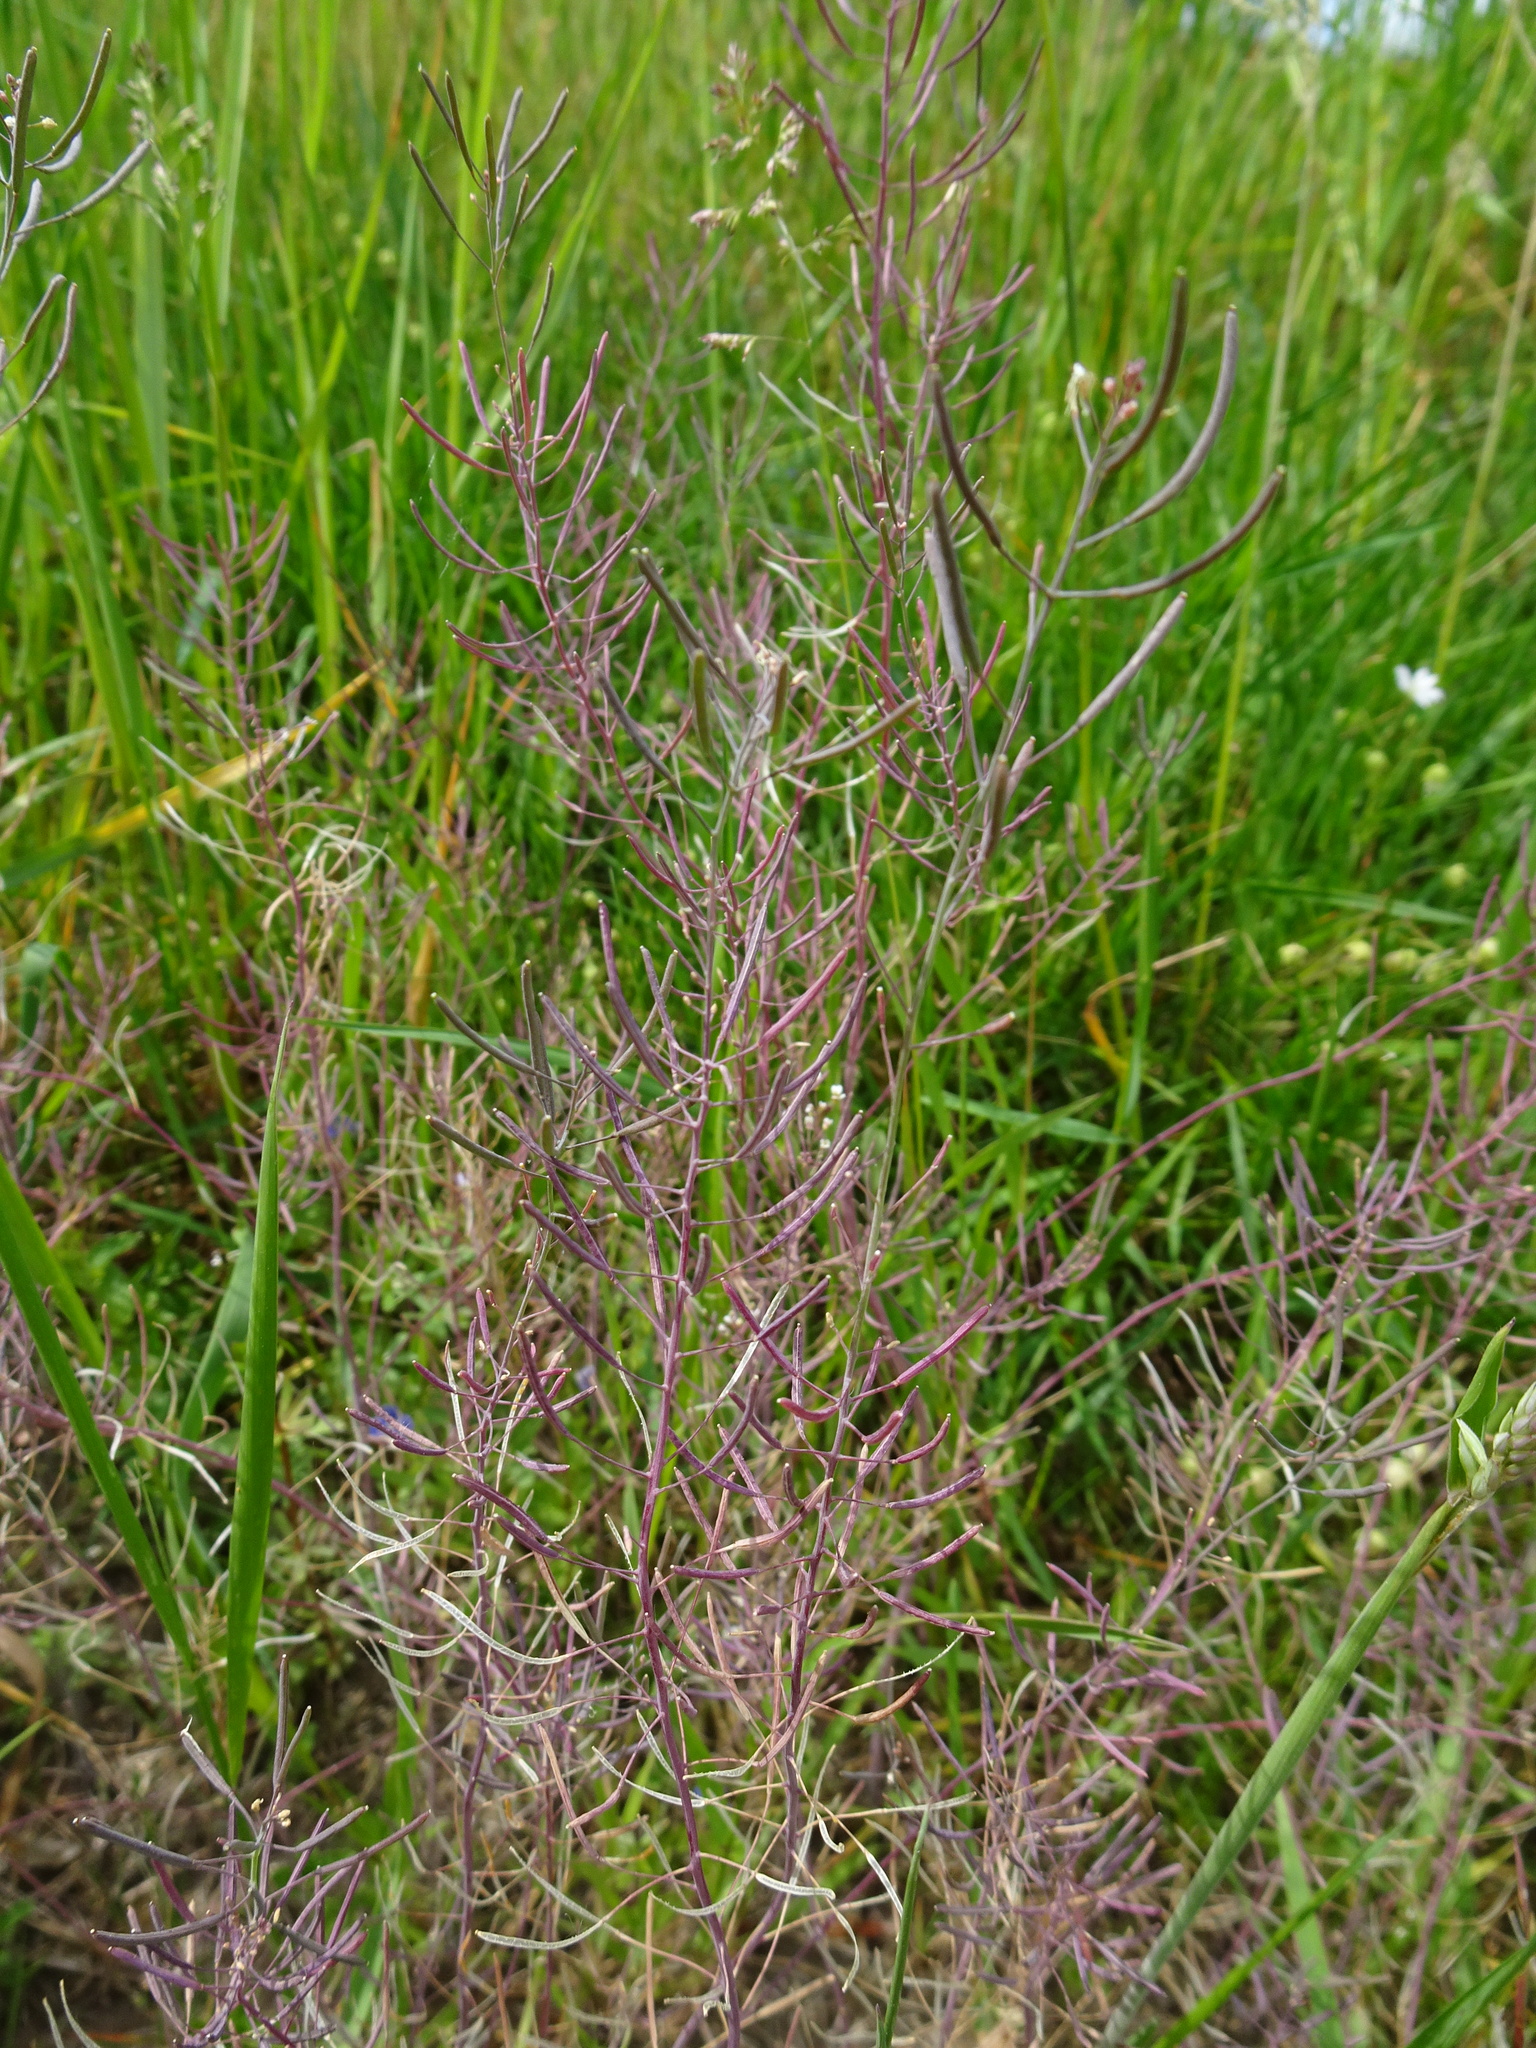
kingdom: Plantae
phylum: Tracheophyta
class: Magnoliopsida
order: Brassicales
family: Brassicaceae
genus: Arabidopsis
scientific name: Arabidopsis thaliana
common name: Thale cress
